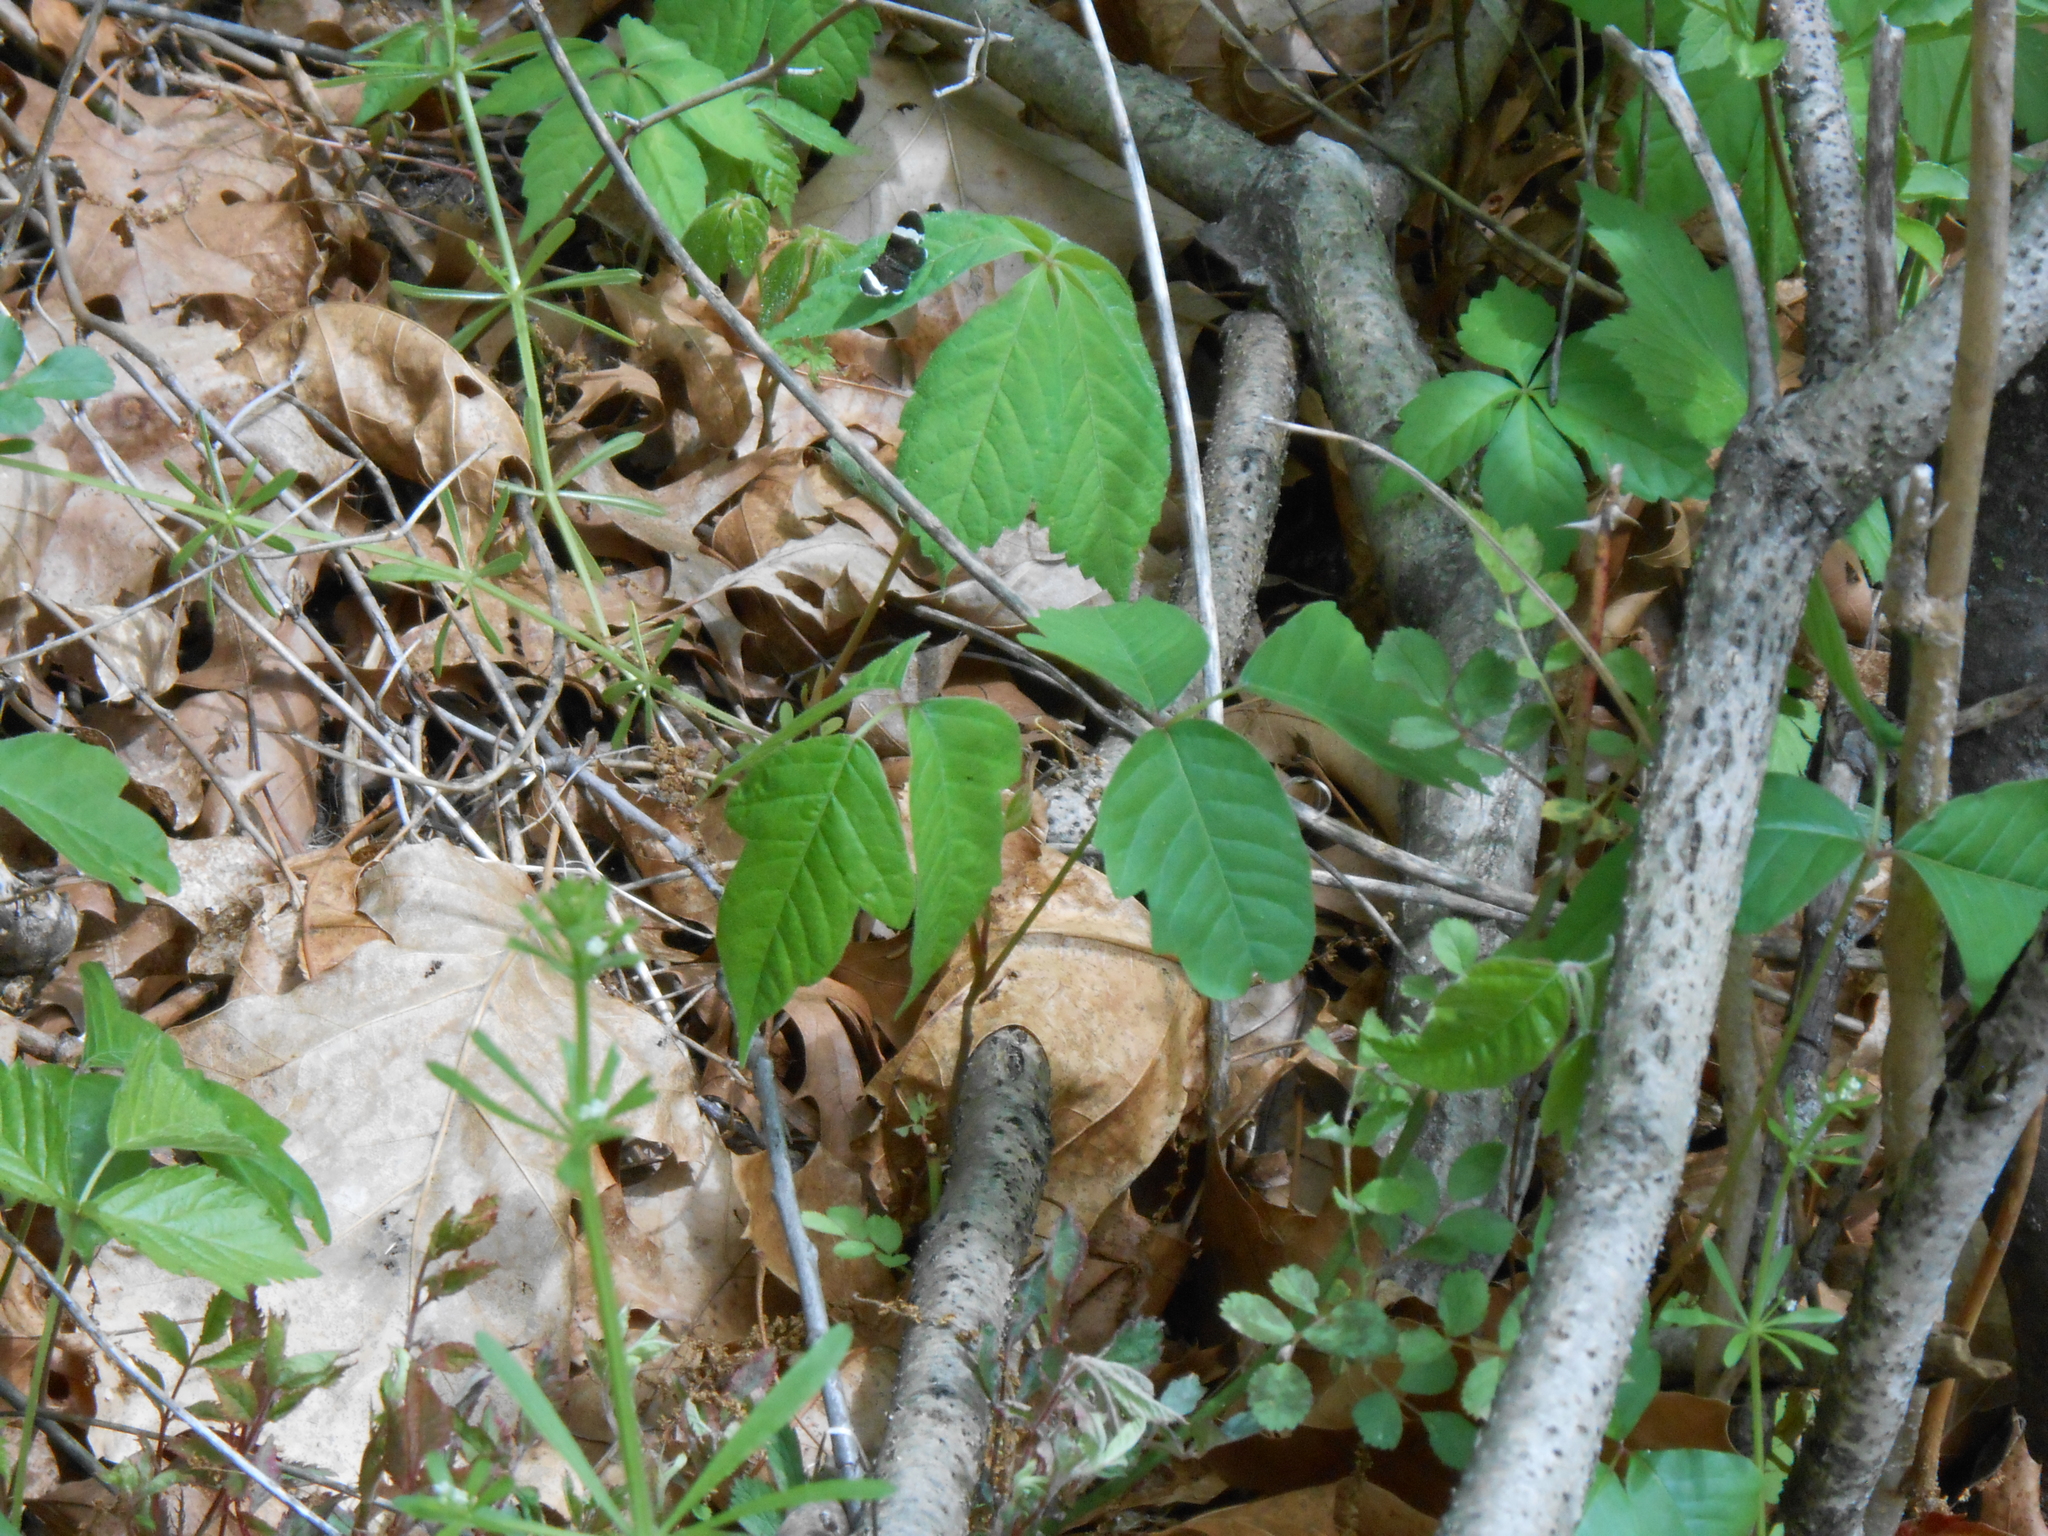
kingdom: Animalia
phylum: Arthropoda
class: Insecta
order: Lepidoptera
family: Geometridae
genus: Trichodezia
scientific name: Trichodezia albovittata
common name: White striped black
